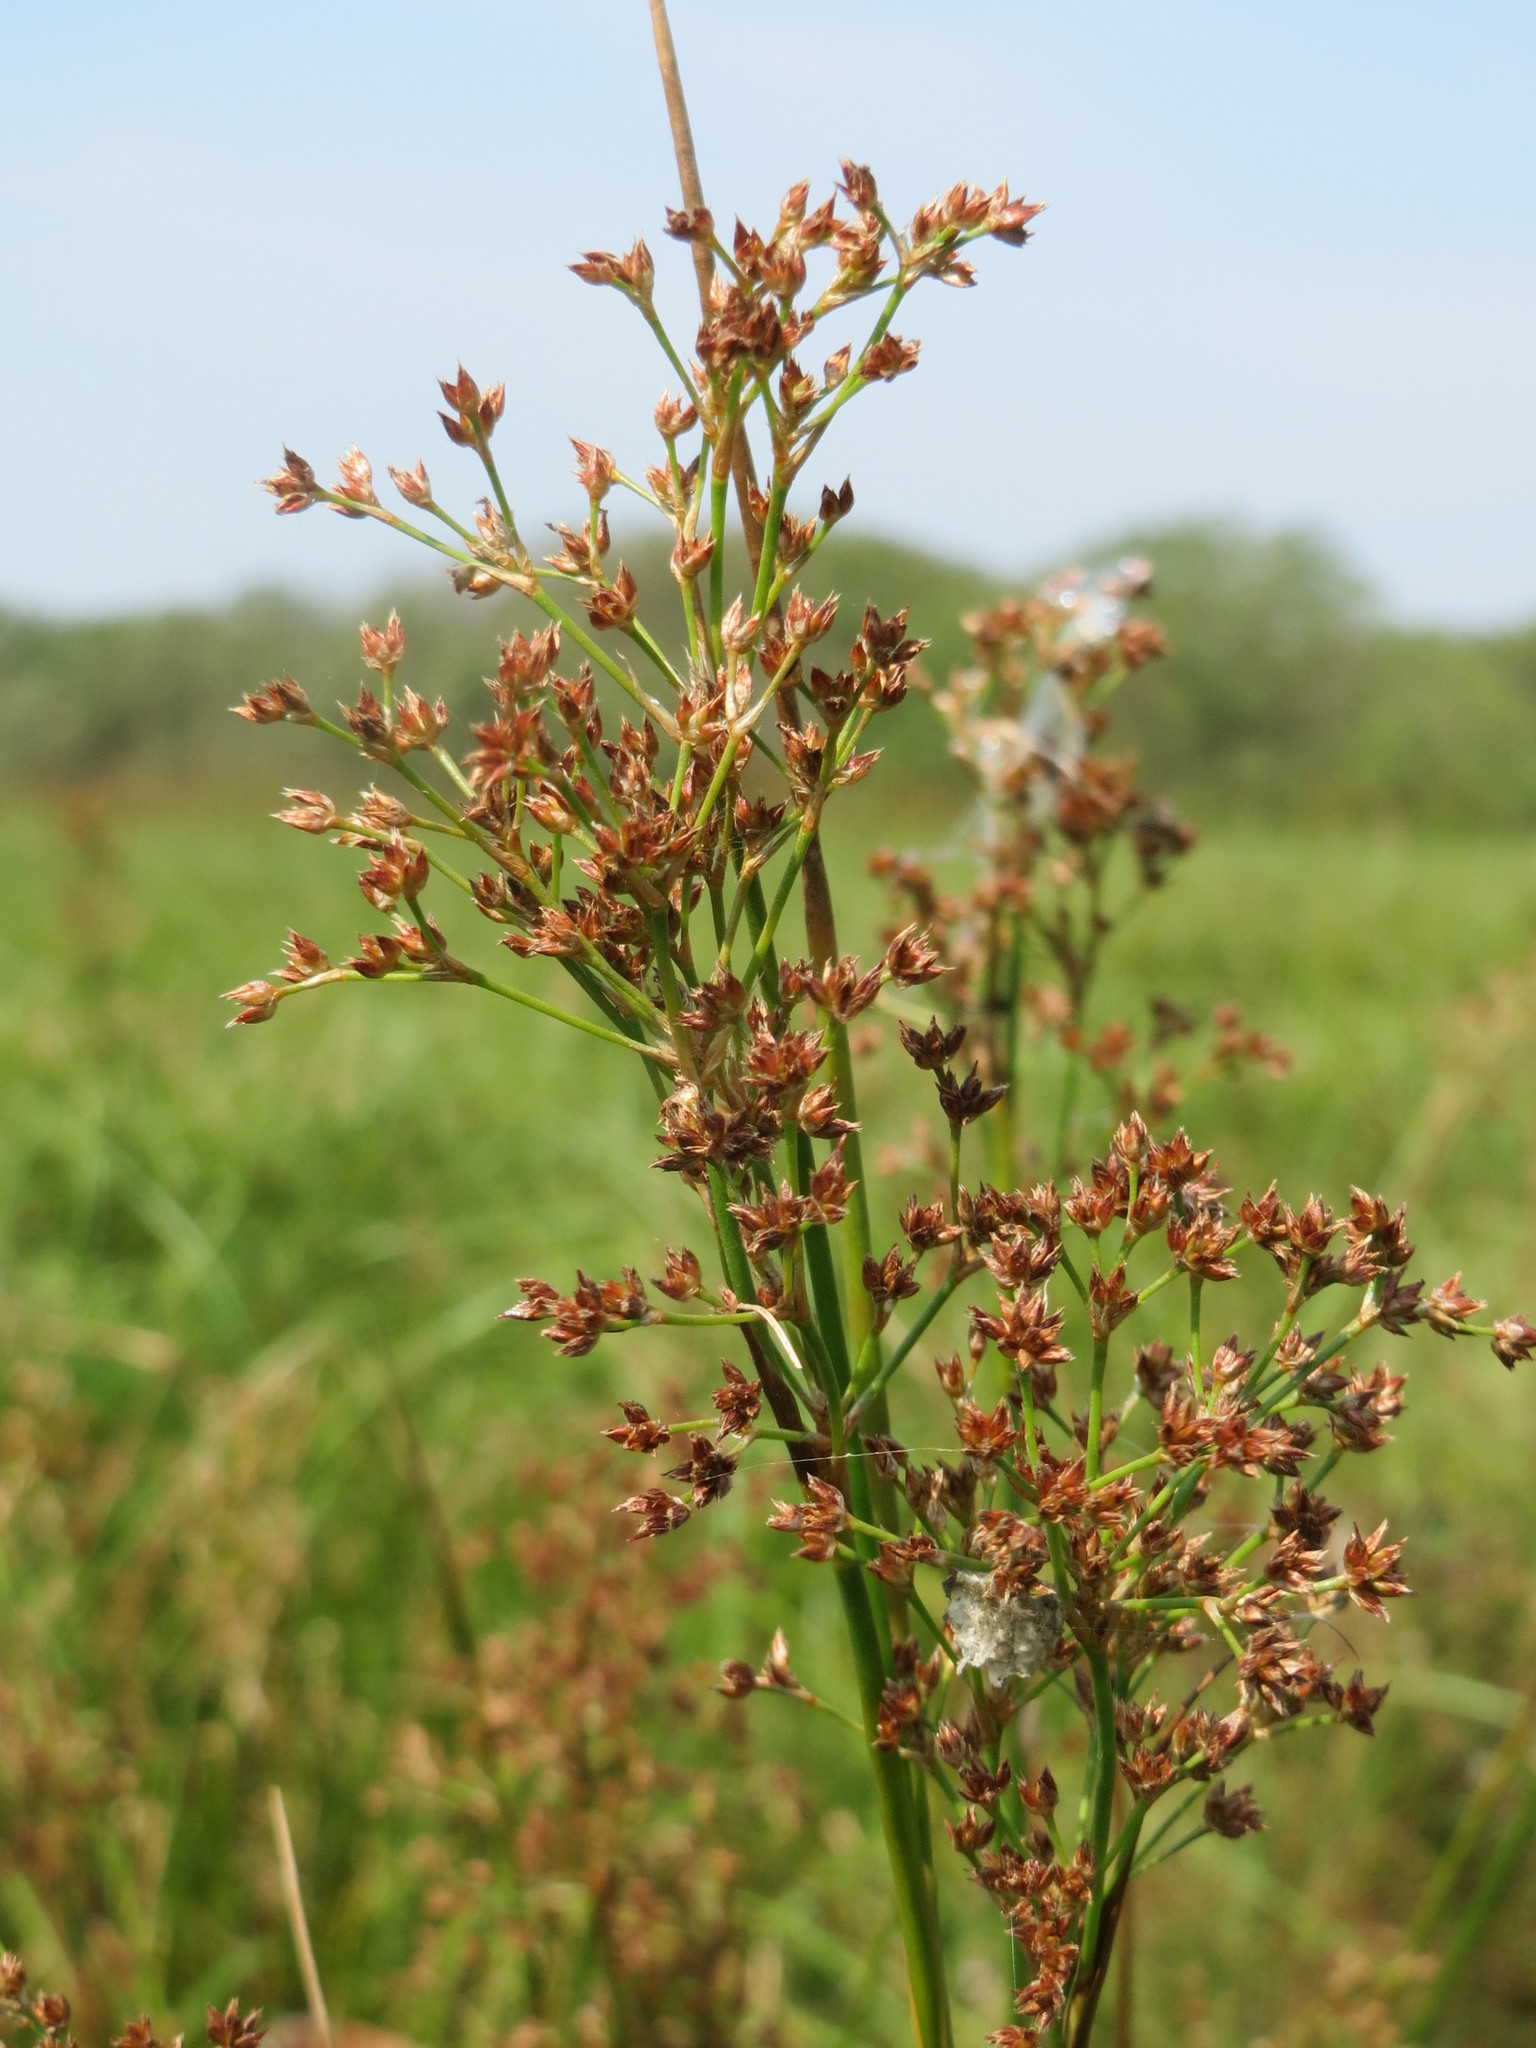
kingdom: Plantae
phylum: Tracheophyta
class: Liliopsida
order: Poales
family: Juncaceae
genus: Juncus
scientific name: Juncus acutiflorus
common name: Sharp-flowered rush
